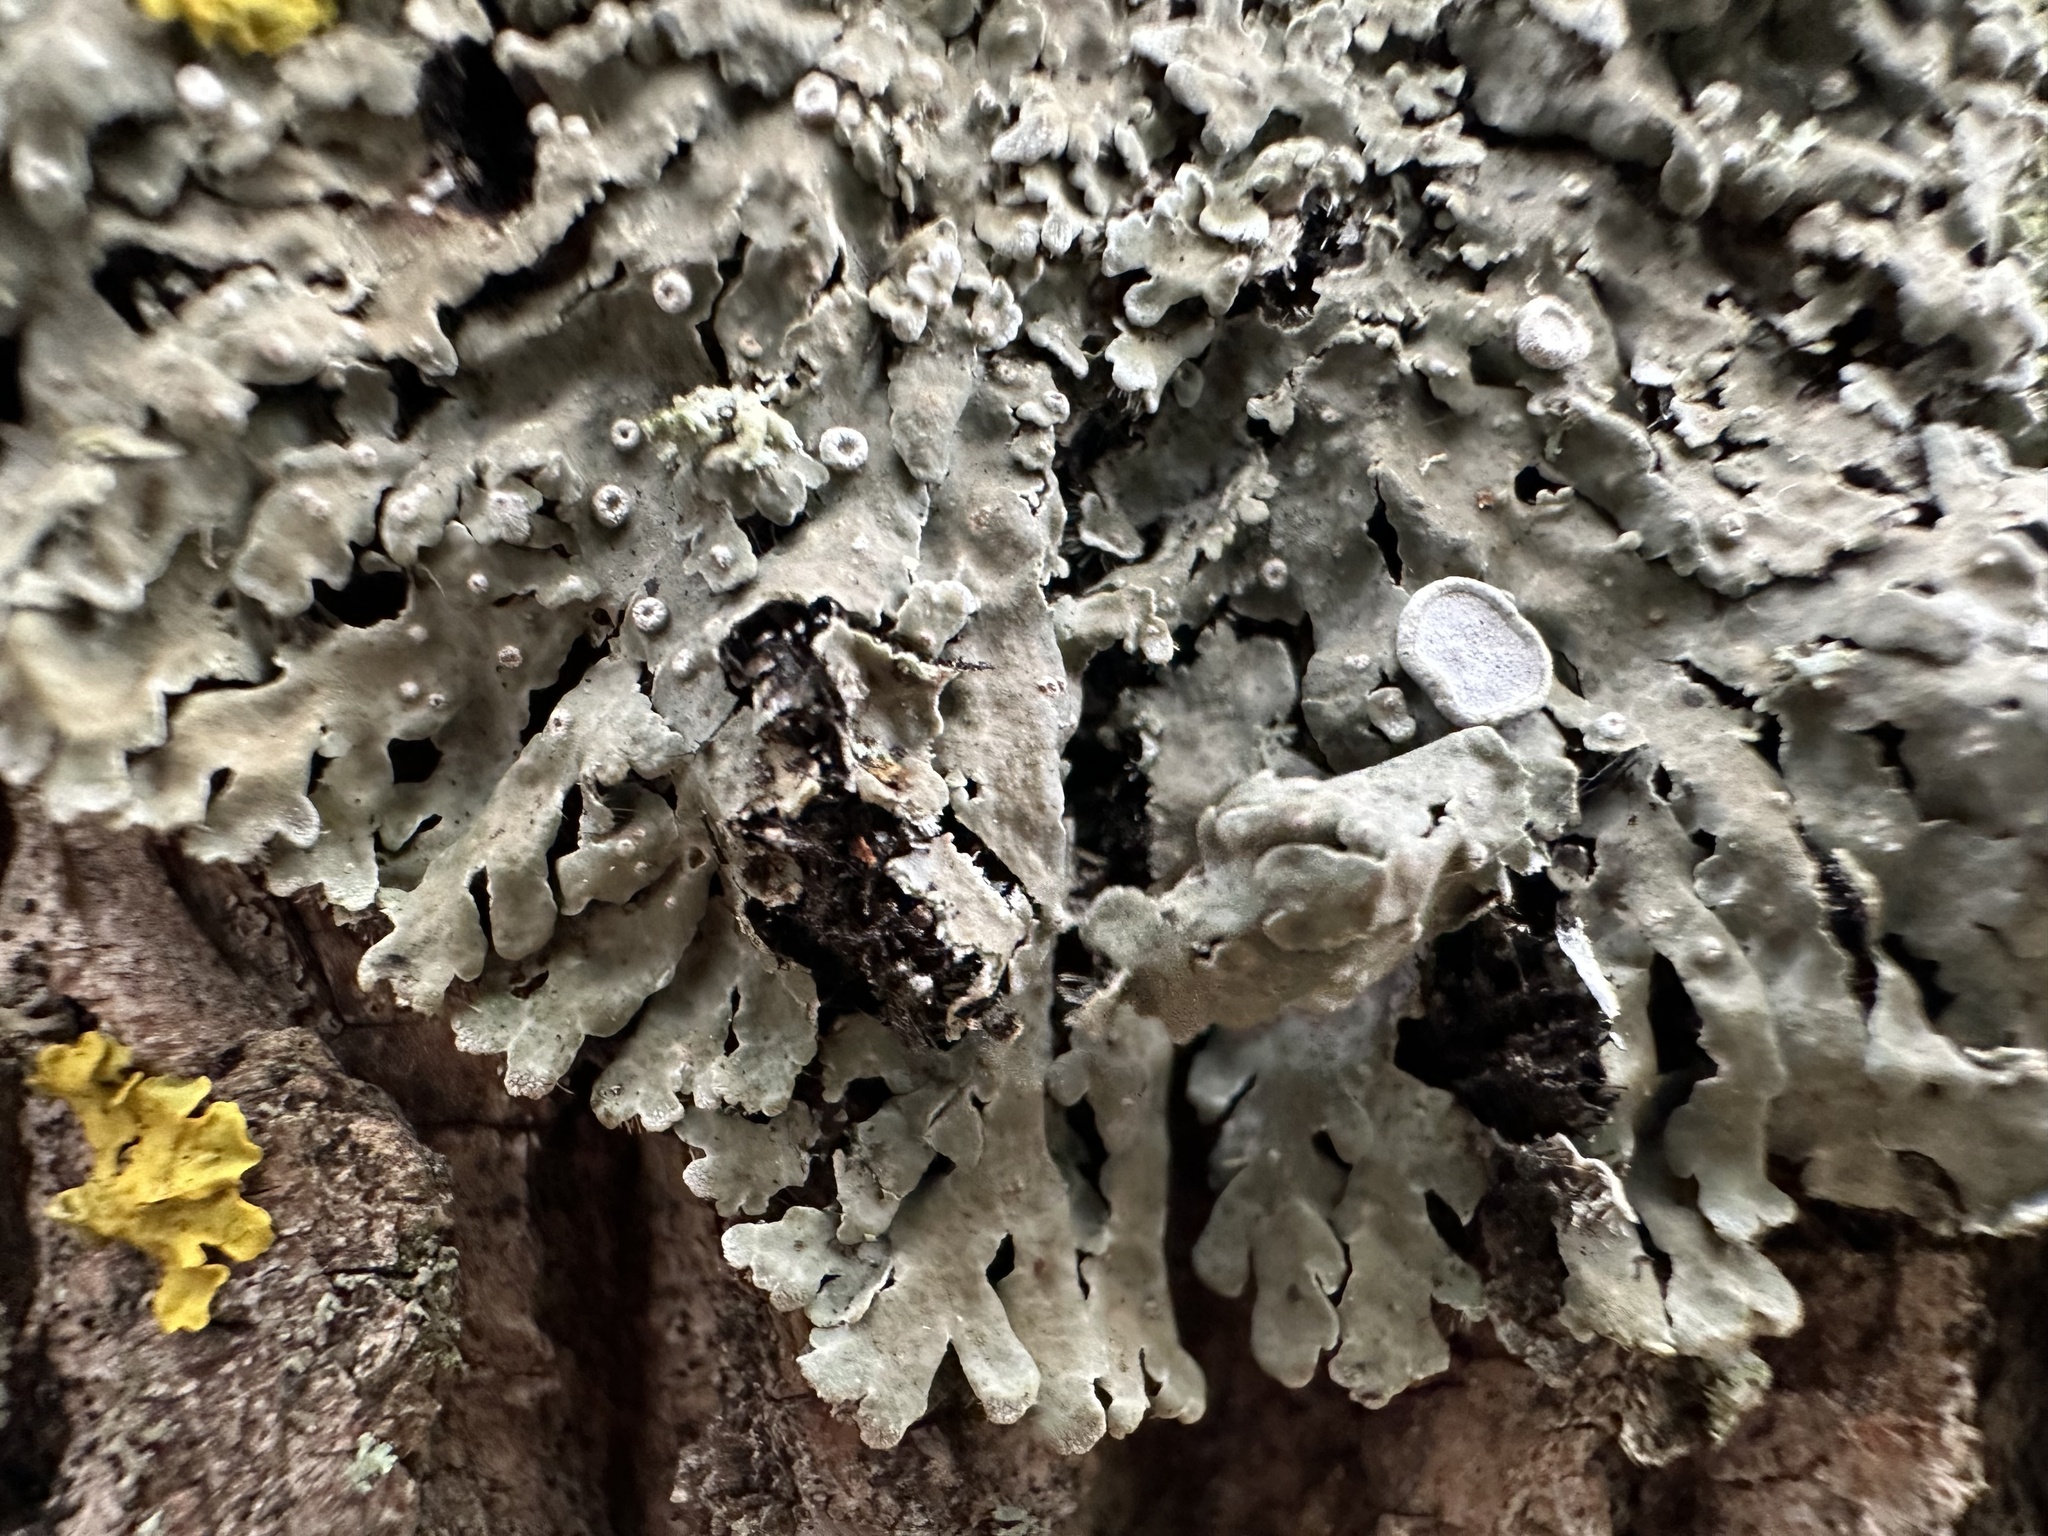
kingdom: Fungi
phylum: Ascomycota
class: Lecanoromycetes
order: Caliciales
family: Physciaceae
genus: Physconia
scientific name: Physconia distorta
